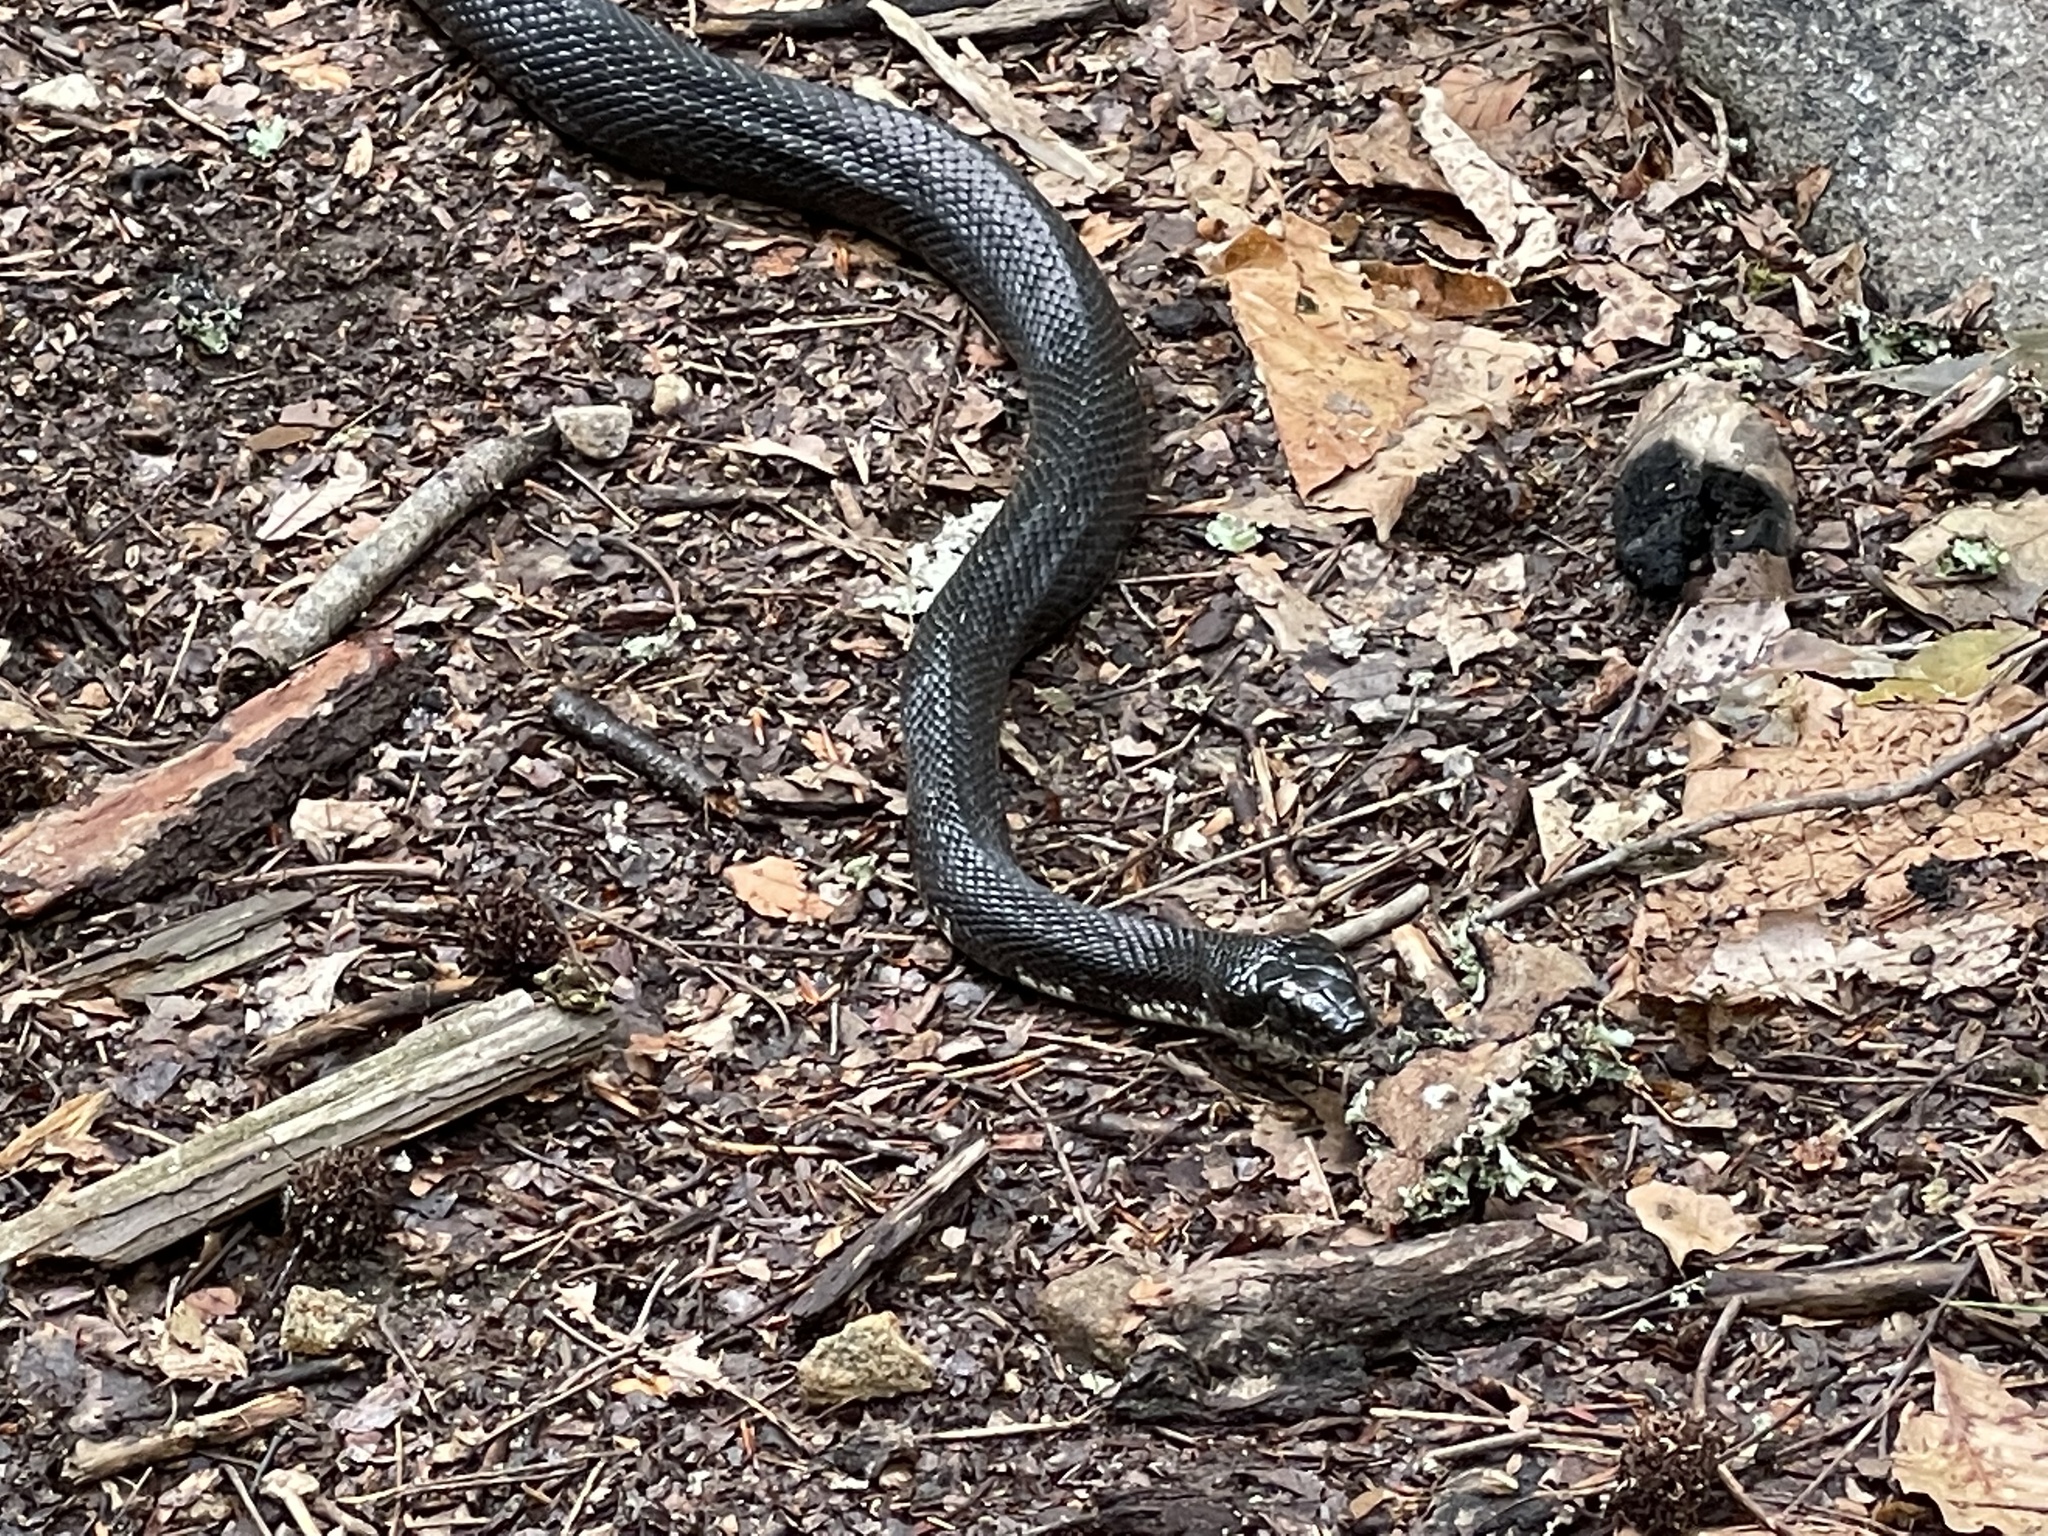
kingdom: Animalia
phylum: Chordata
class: Squamata
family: Colubridae
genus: Pantherophis
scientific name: Pantherophis alleghaniensis
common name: Eastern rat snake
